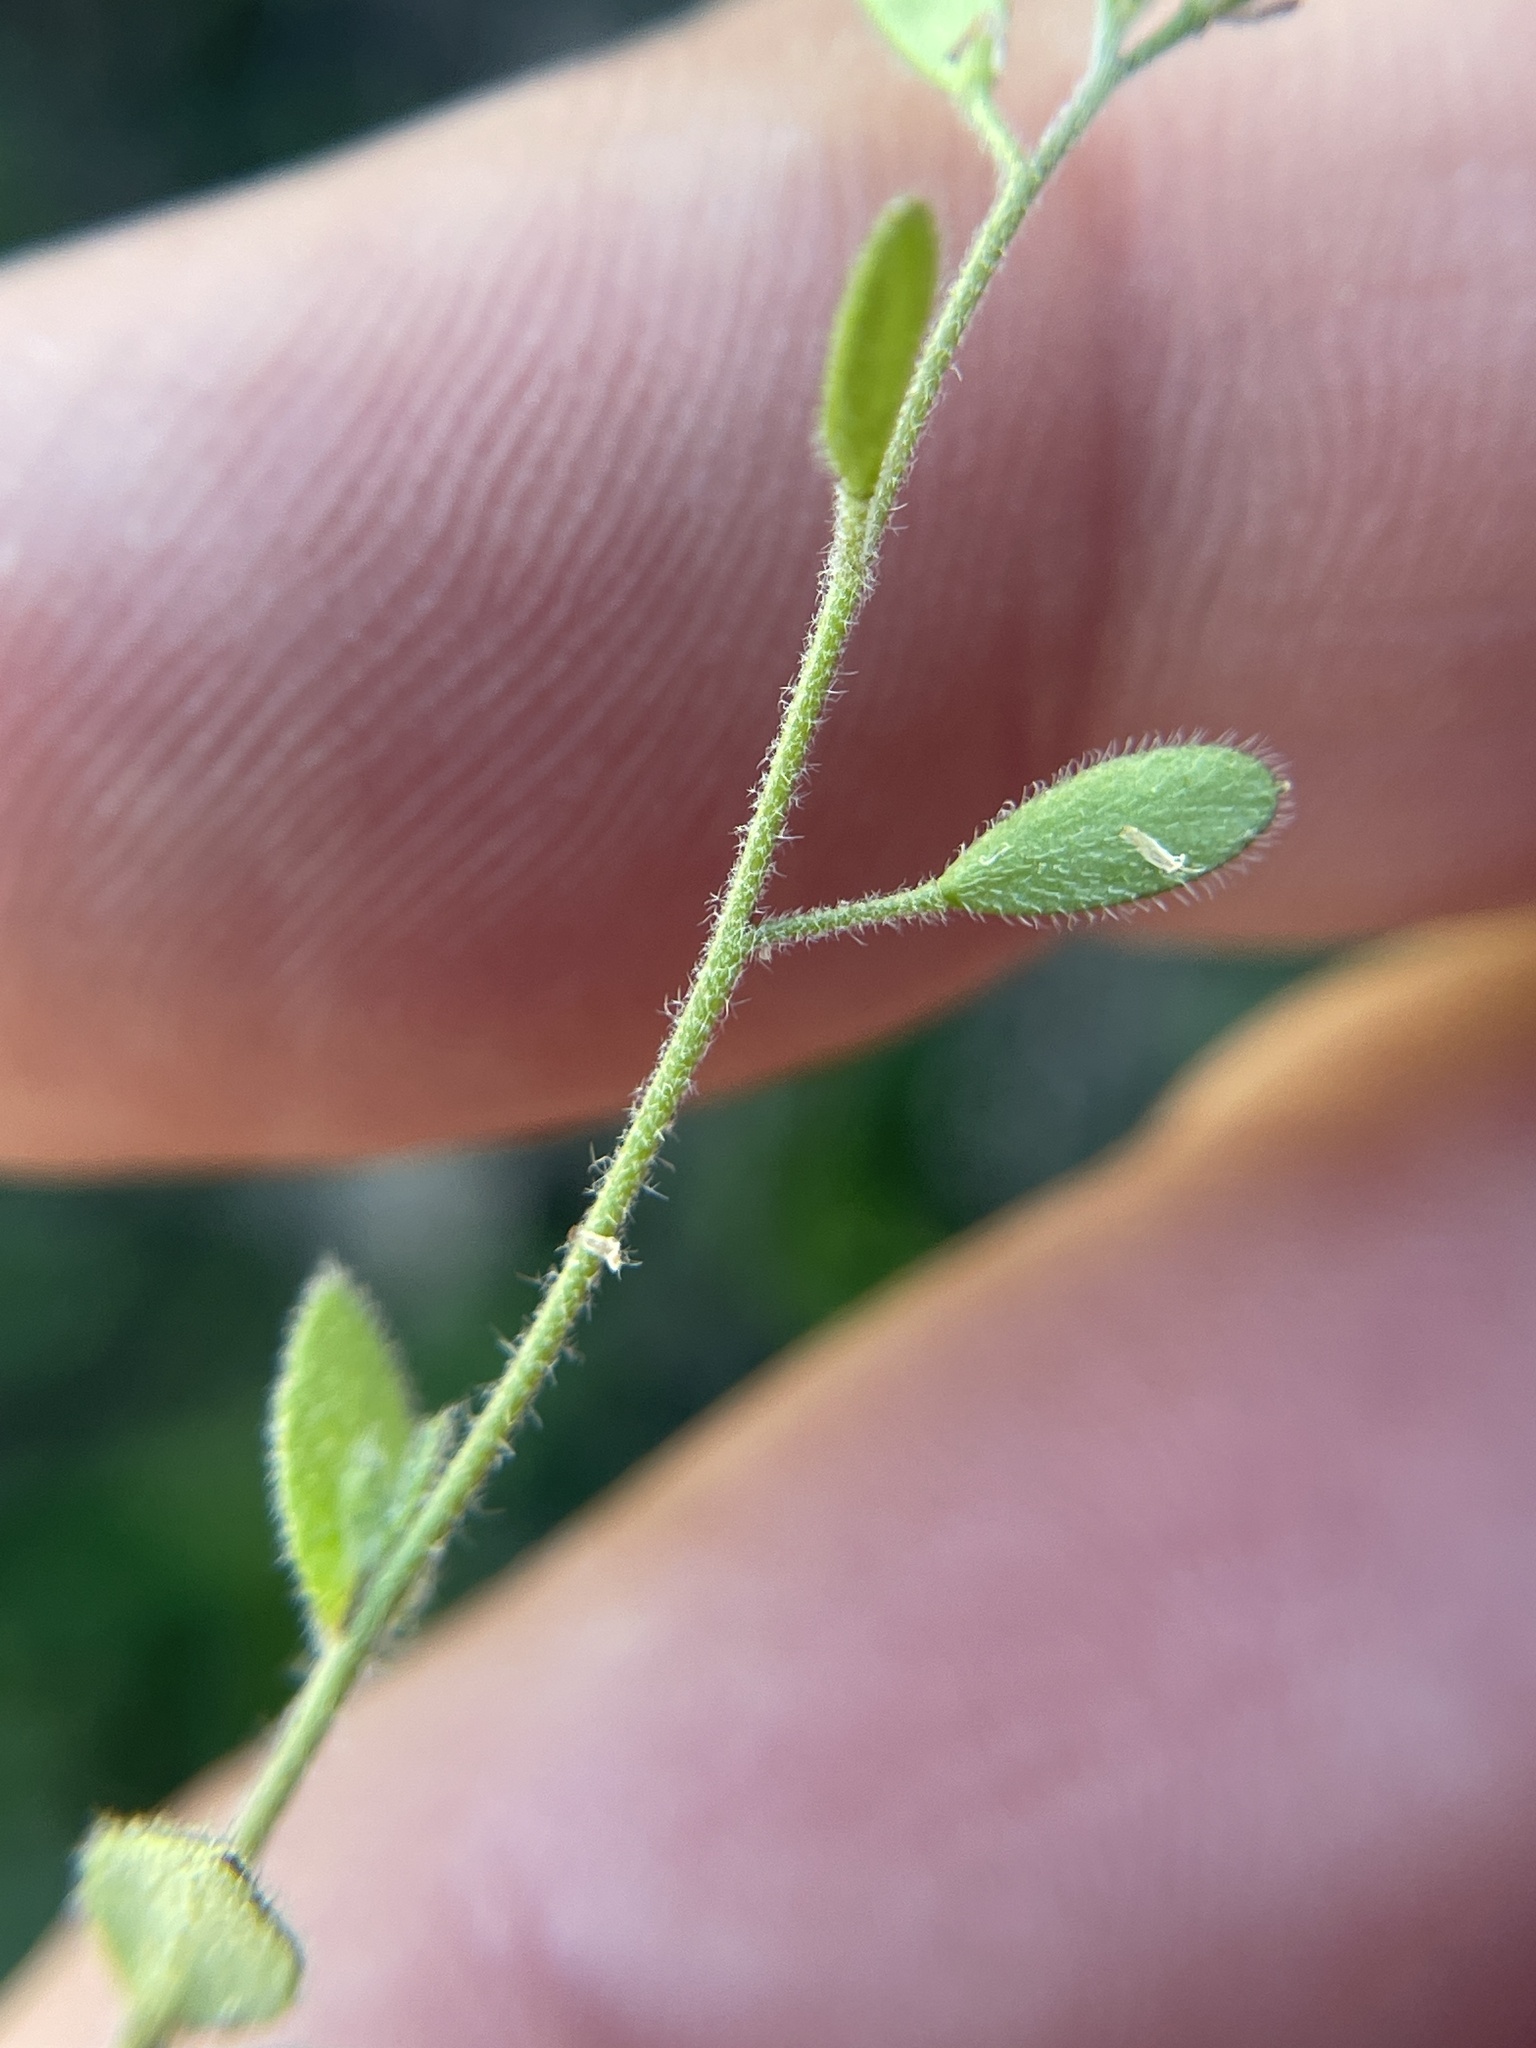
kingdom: Plantae
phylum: Tracheophyta
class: Magnoliopsida
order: Brassicales
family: Brassicaceae
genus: Tomostima
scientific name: Tomostima platycarpa
